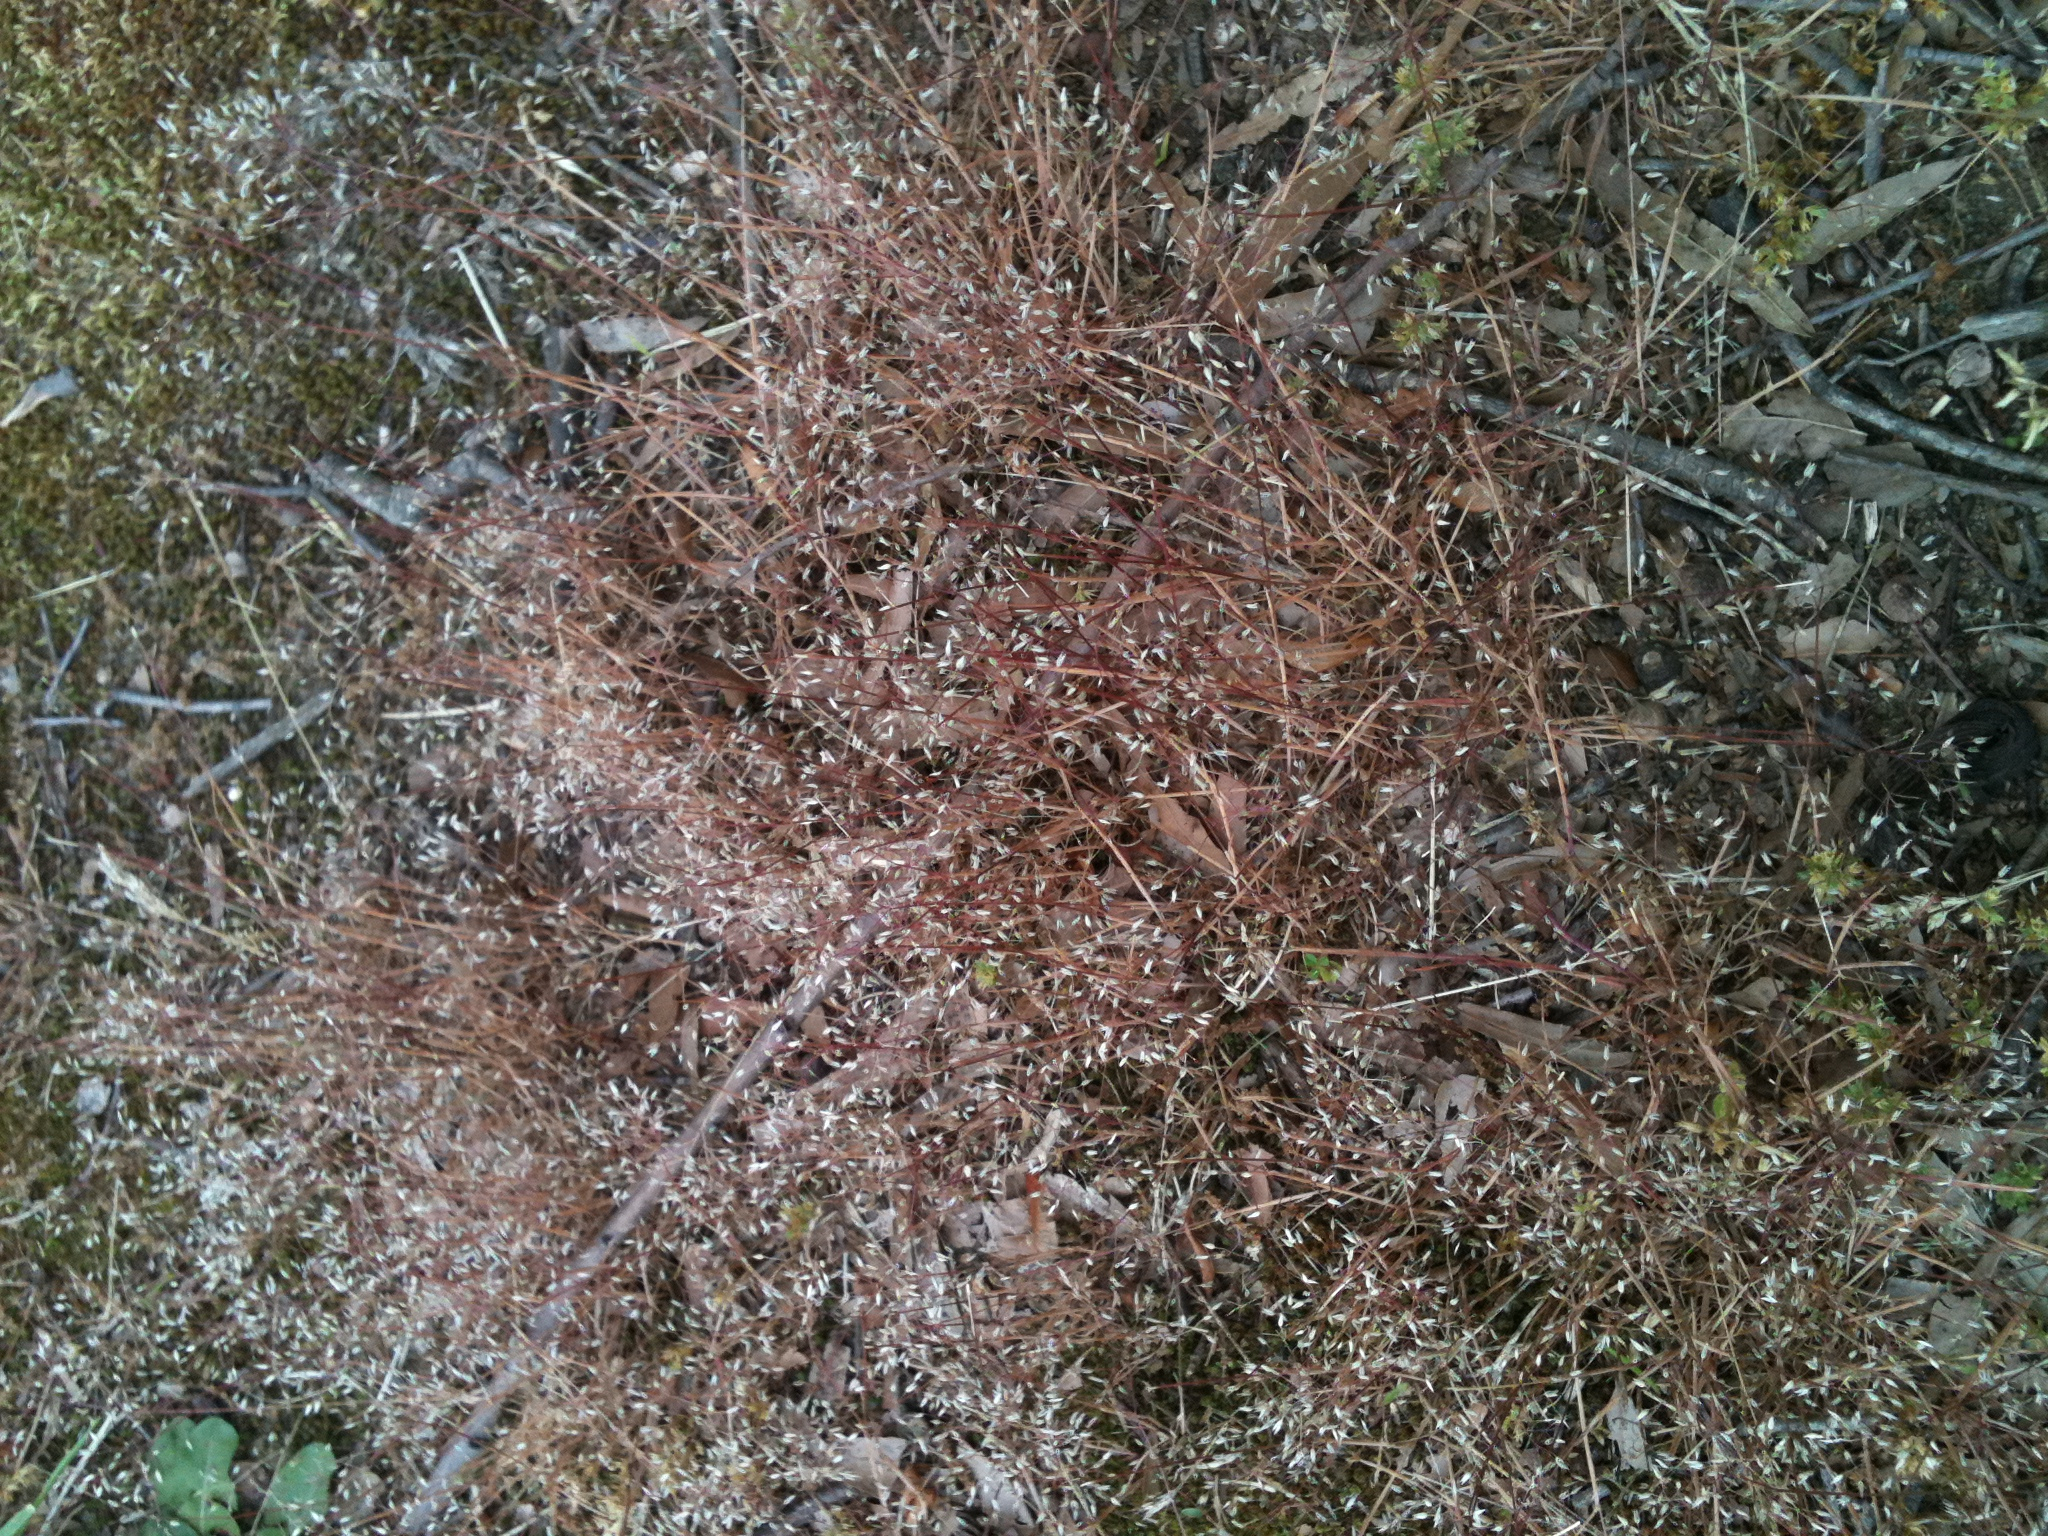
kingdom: Plantae
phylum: Tracheophyta
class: Liliopsida
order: Poales
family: Poaceae
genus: Aira
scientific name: Aira caryophyllea
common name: Silver hairgrass
